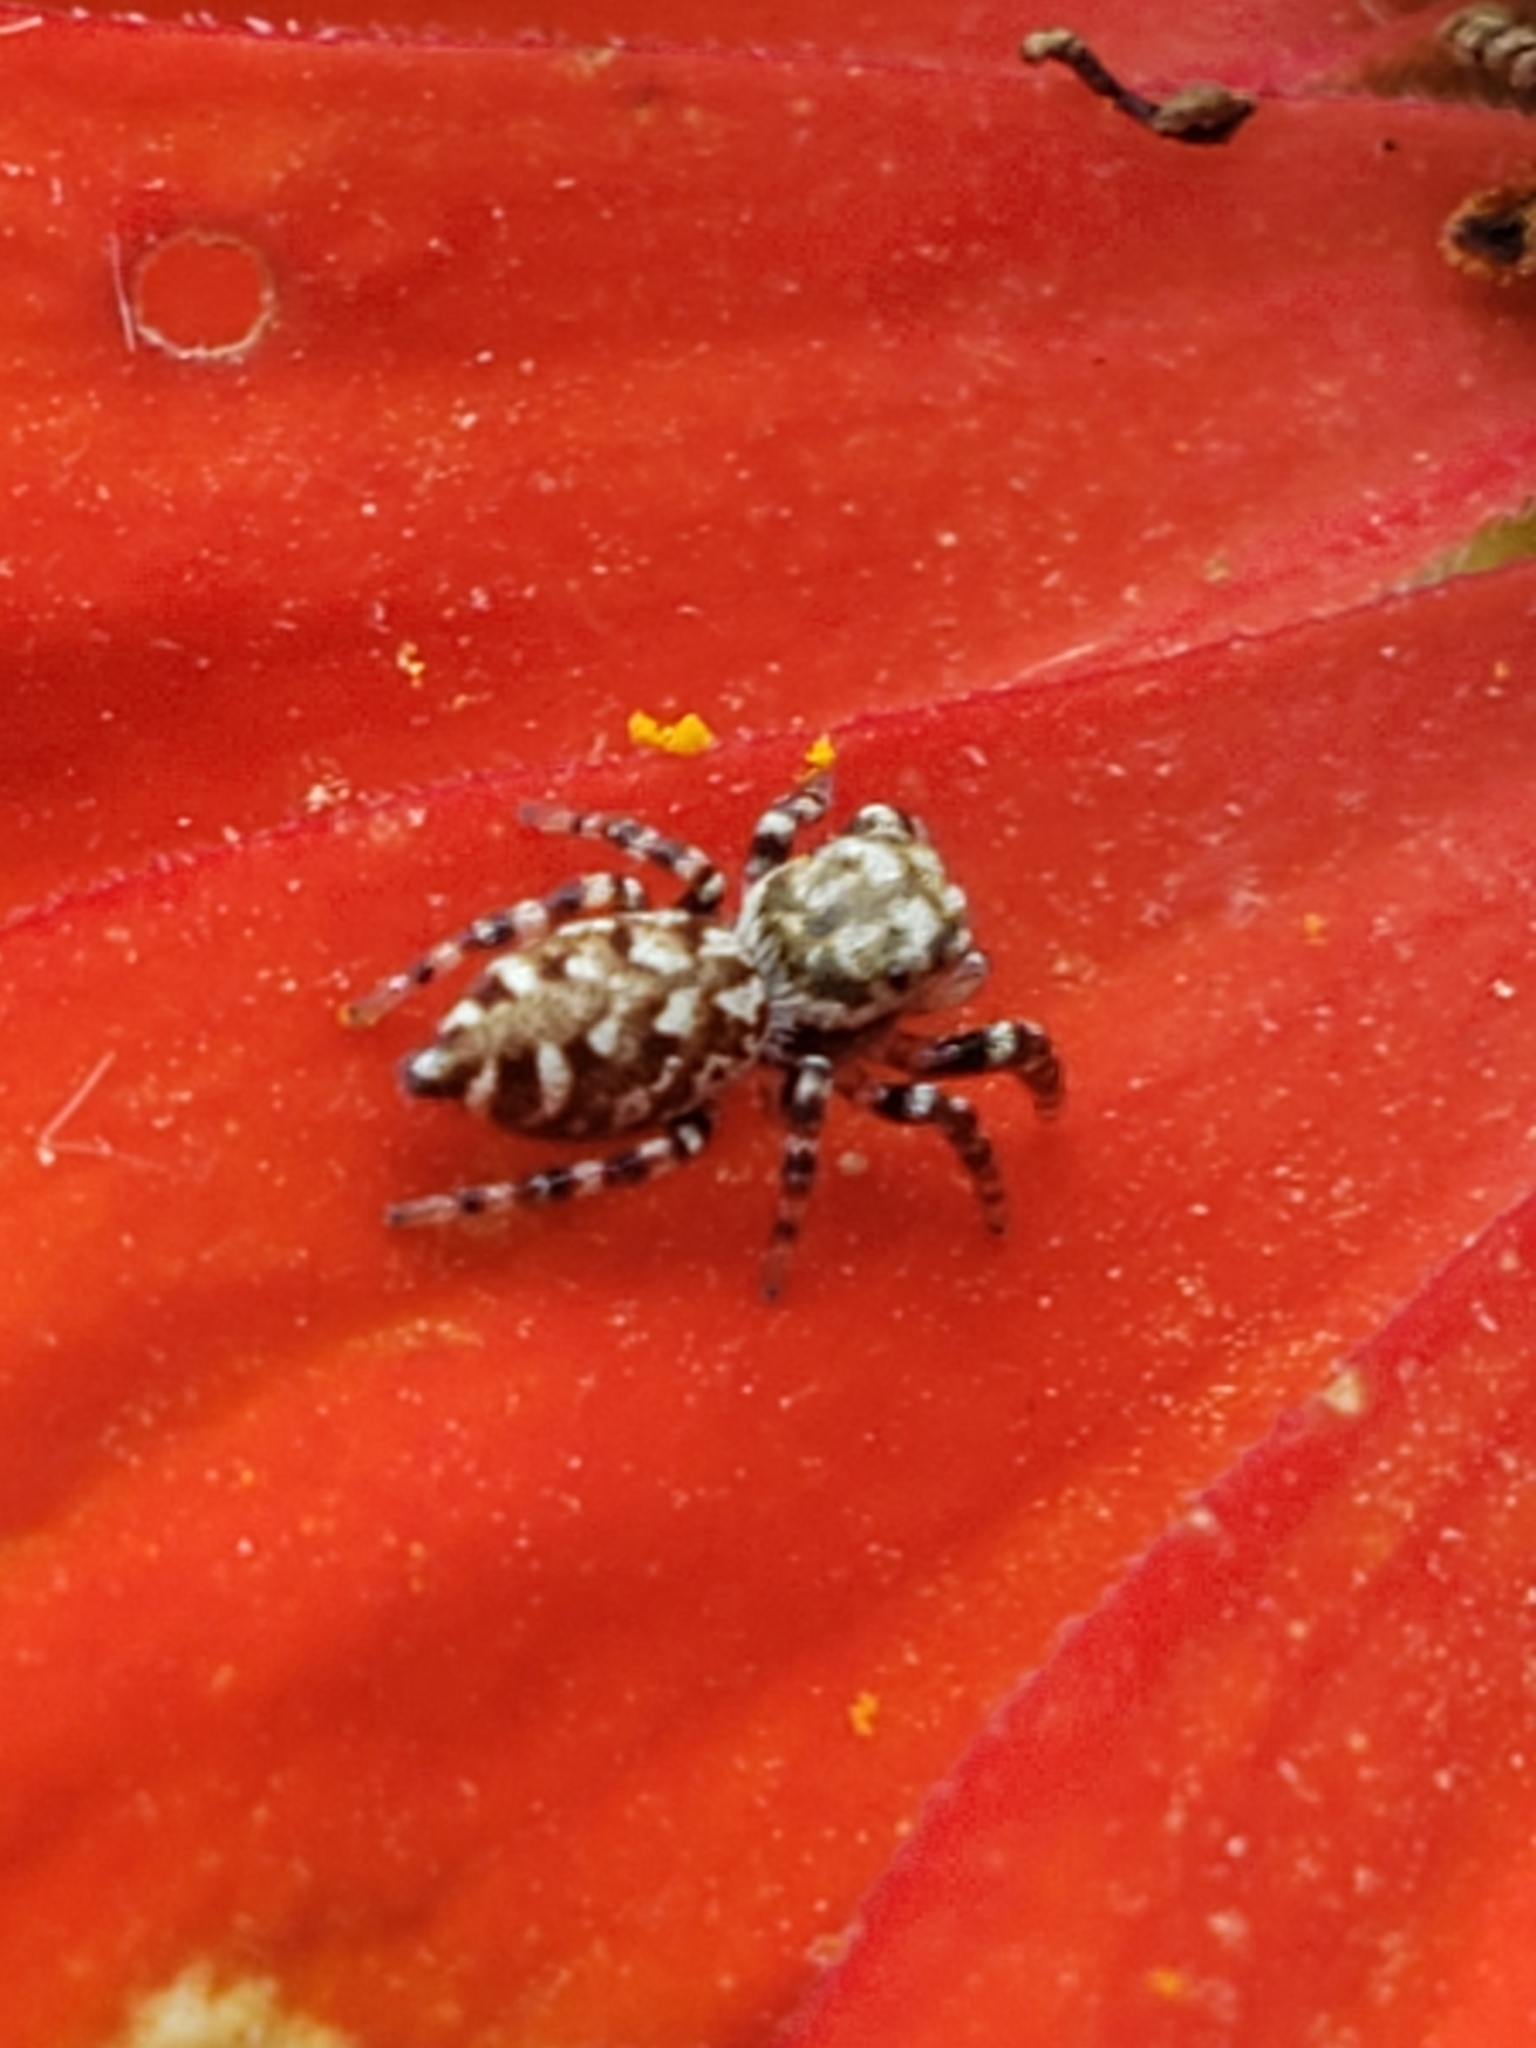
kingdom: Animalia
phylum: Arthropoda
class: Arachnida
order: Araneae
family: Salticidae
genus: Pelegrina
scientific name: Pelegrina galathea
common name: Jumping spiders
